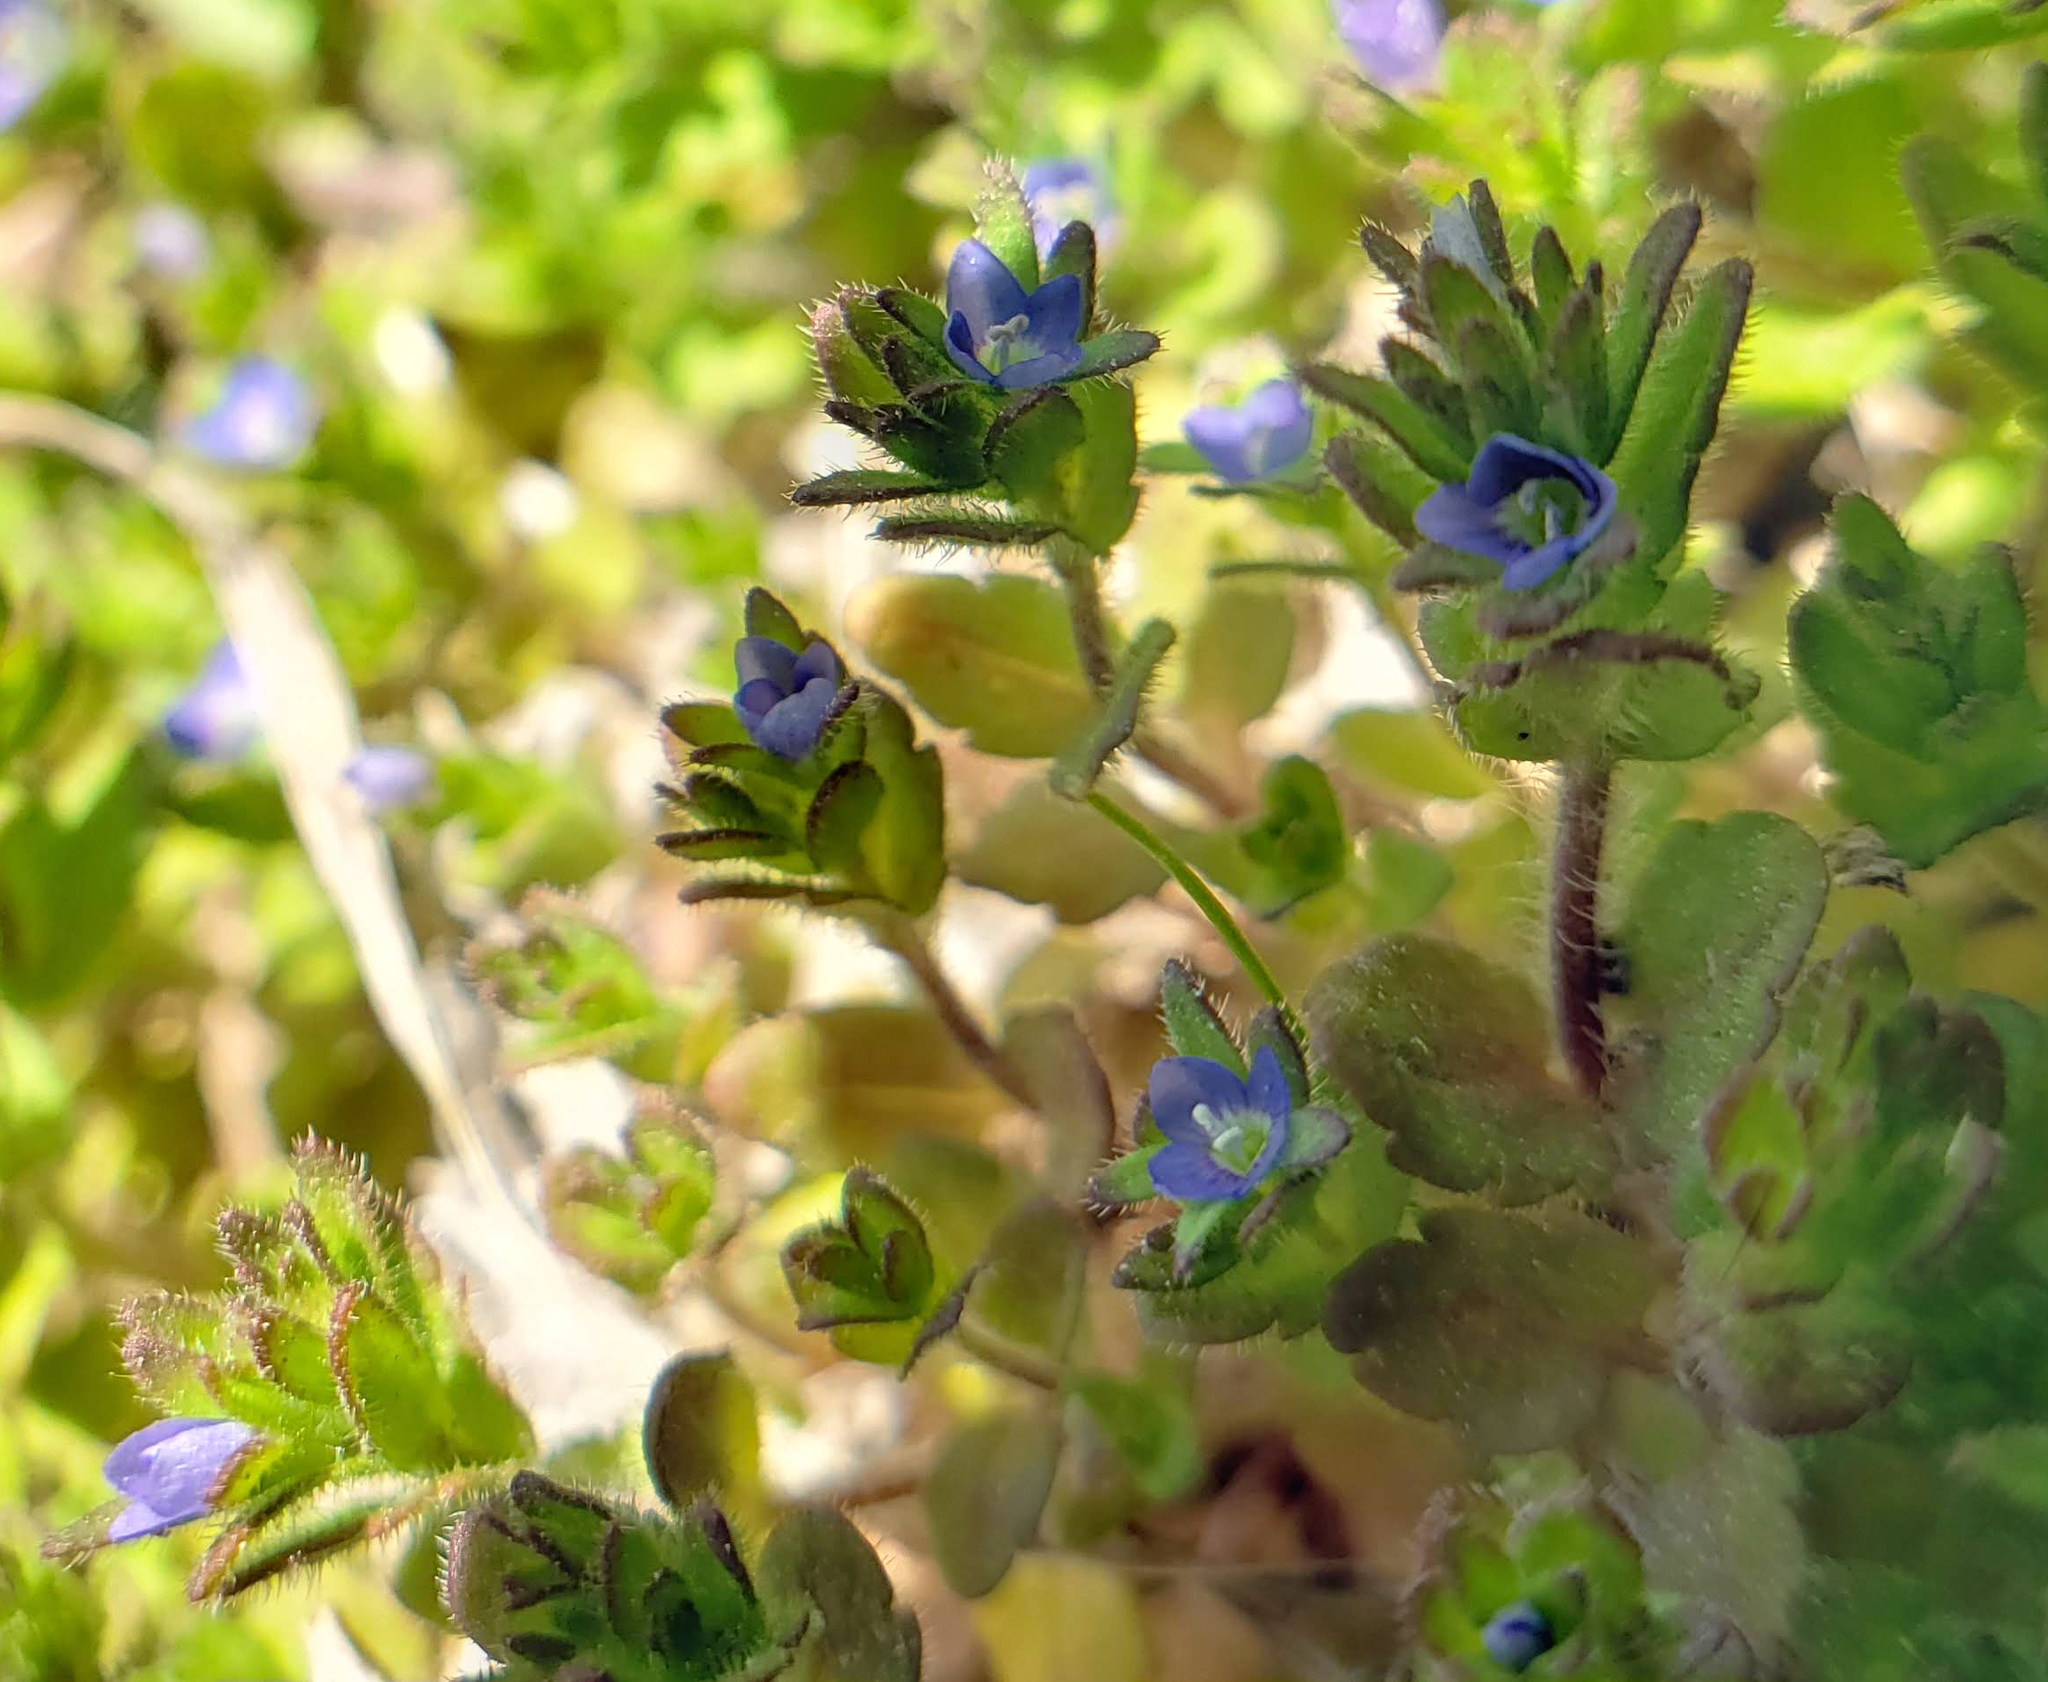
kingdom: Plantae
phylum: Tracheophyta
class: Magnoliopsida
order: Lamiales
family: Plantaginaceae
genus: Veronica
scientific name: Veronica arvensis
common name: Corn speedwell
